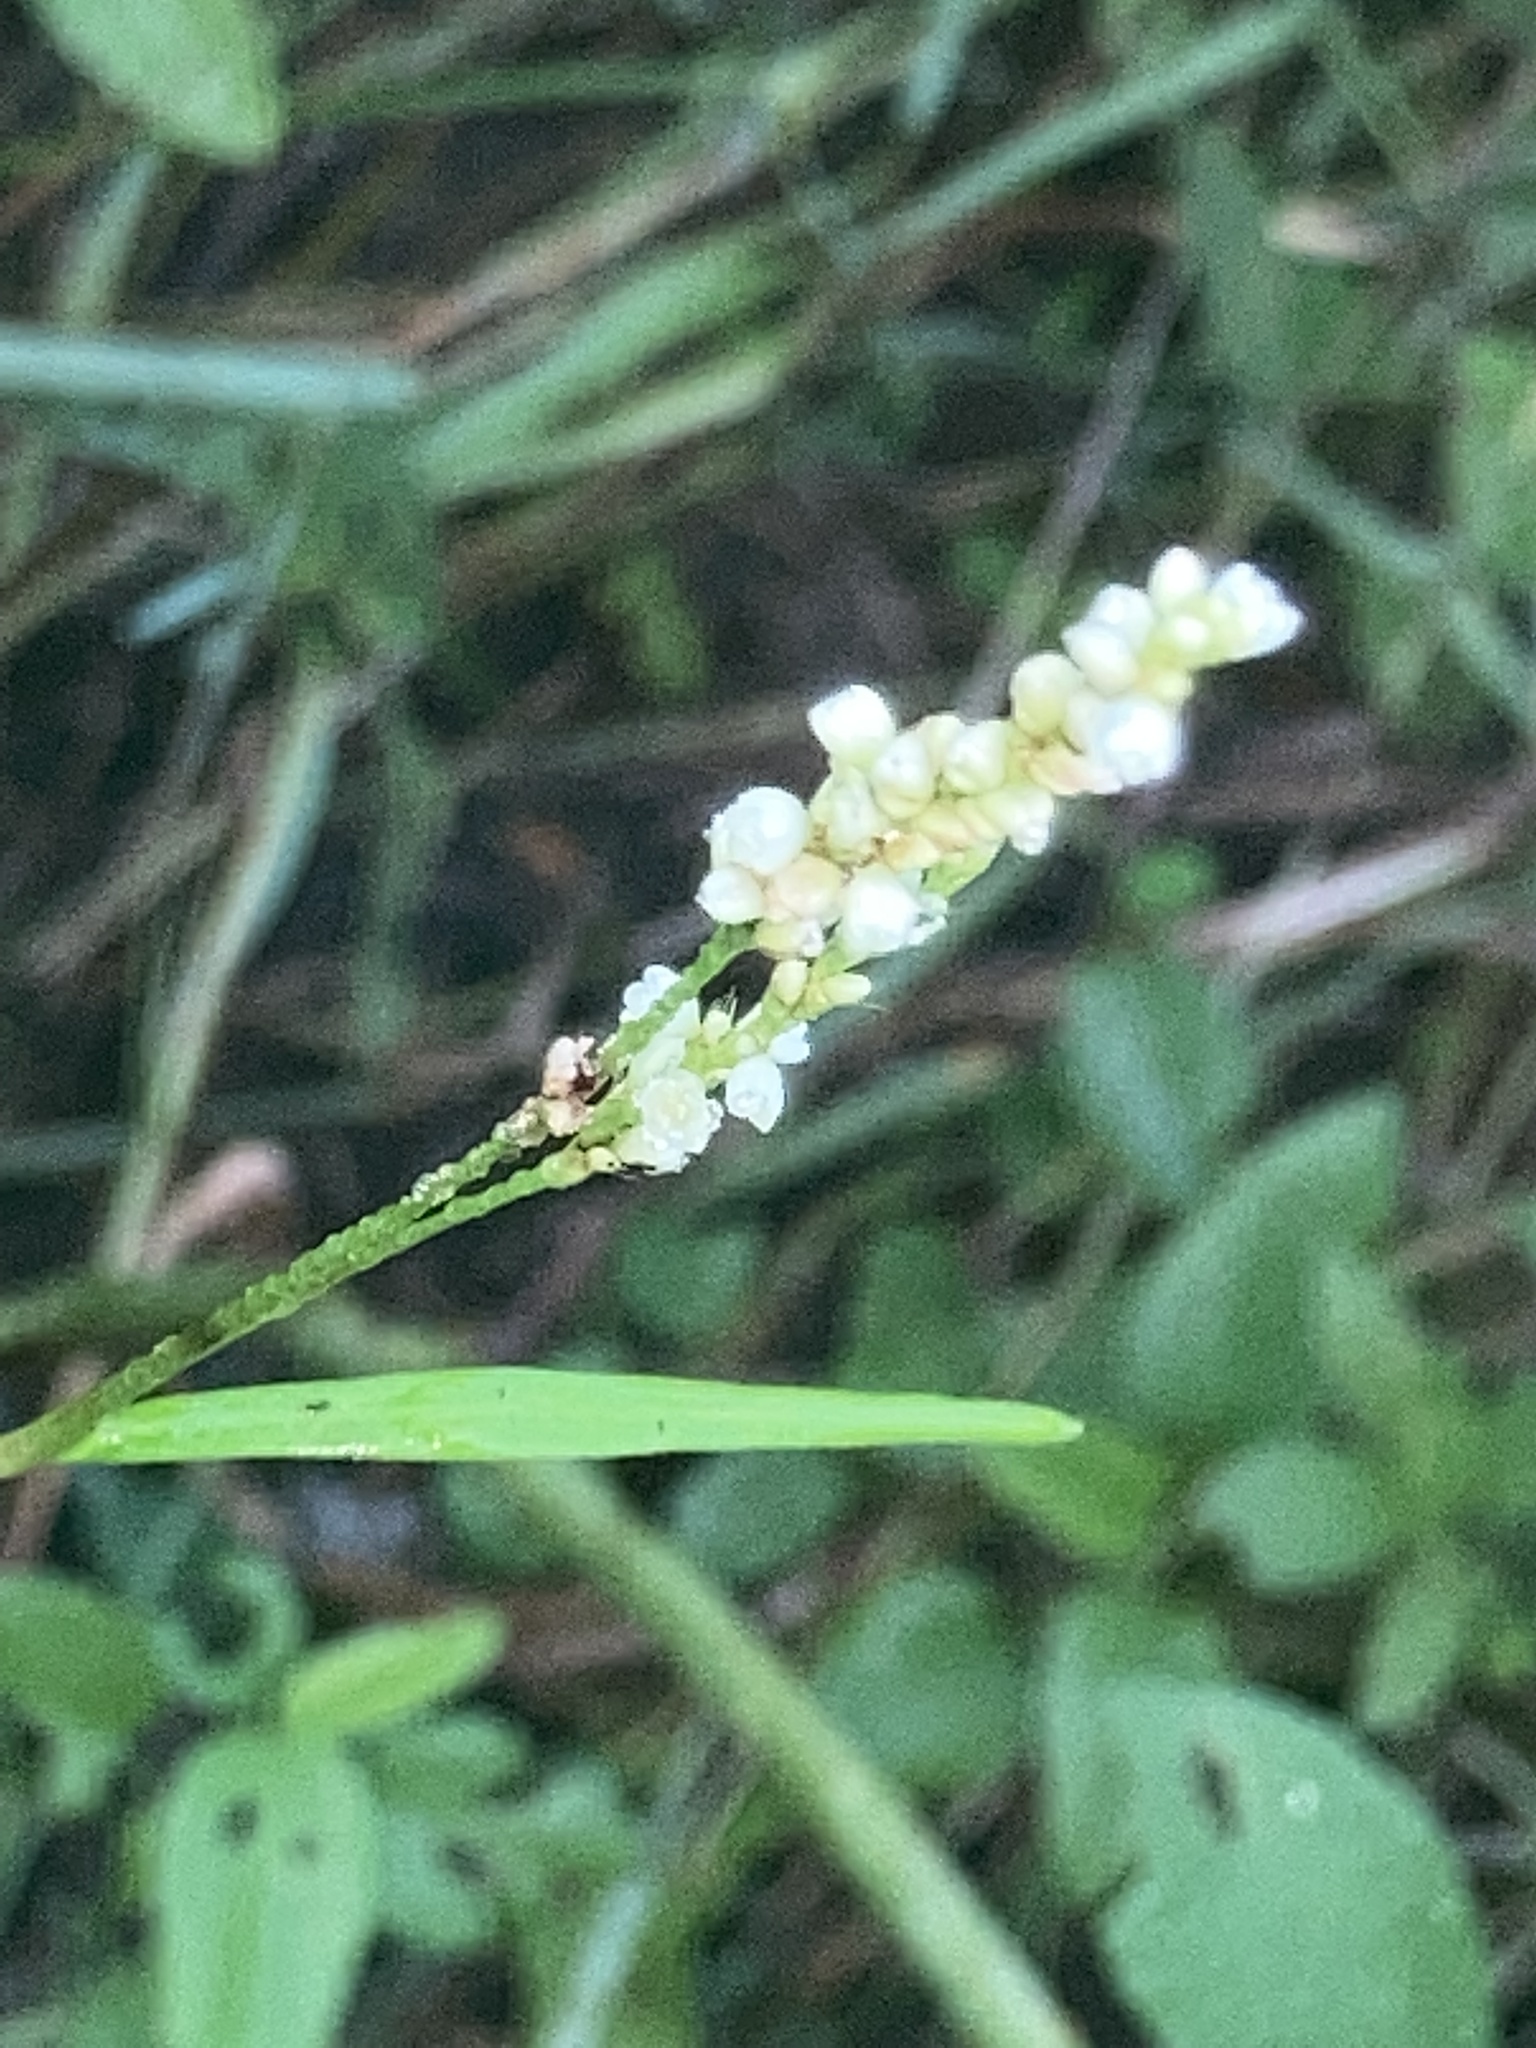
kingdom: Plantae
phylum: Tracheophyta
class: Magnoliopsida
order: Caryophyllales
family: Polygonaceae
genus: Persicaria
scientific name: Persicaria punctata
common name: Dotted smartweed
